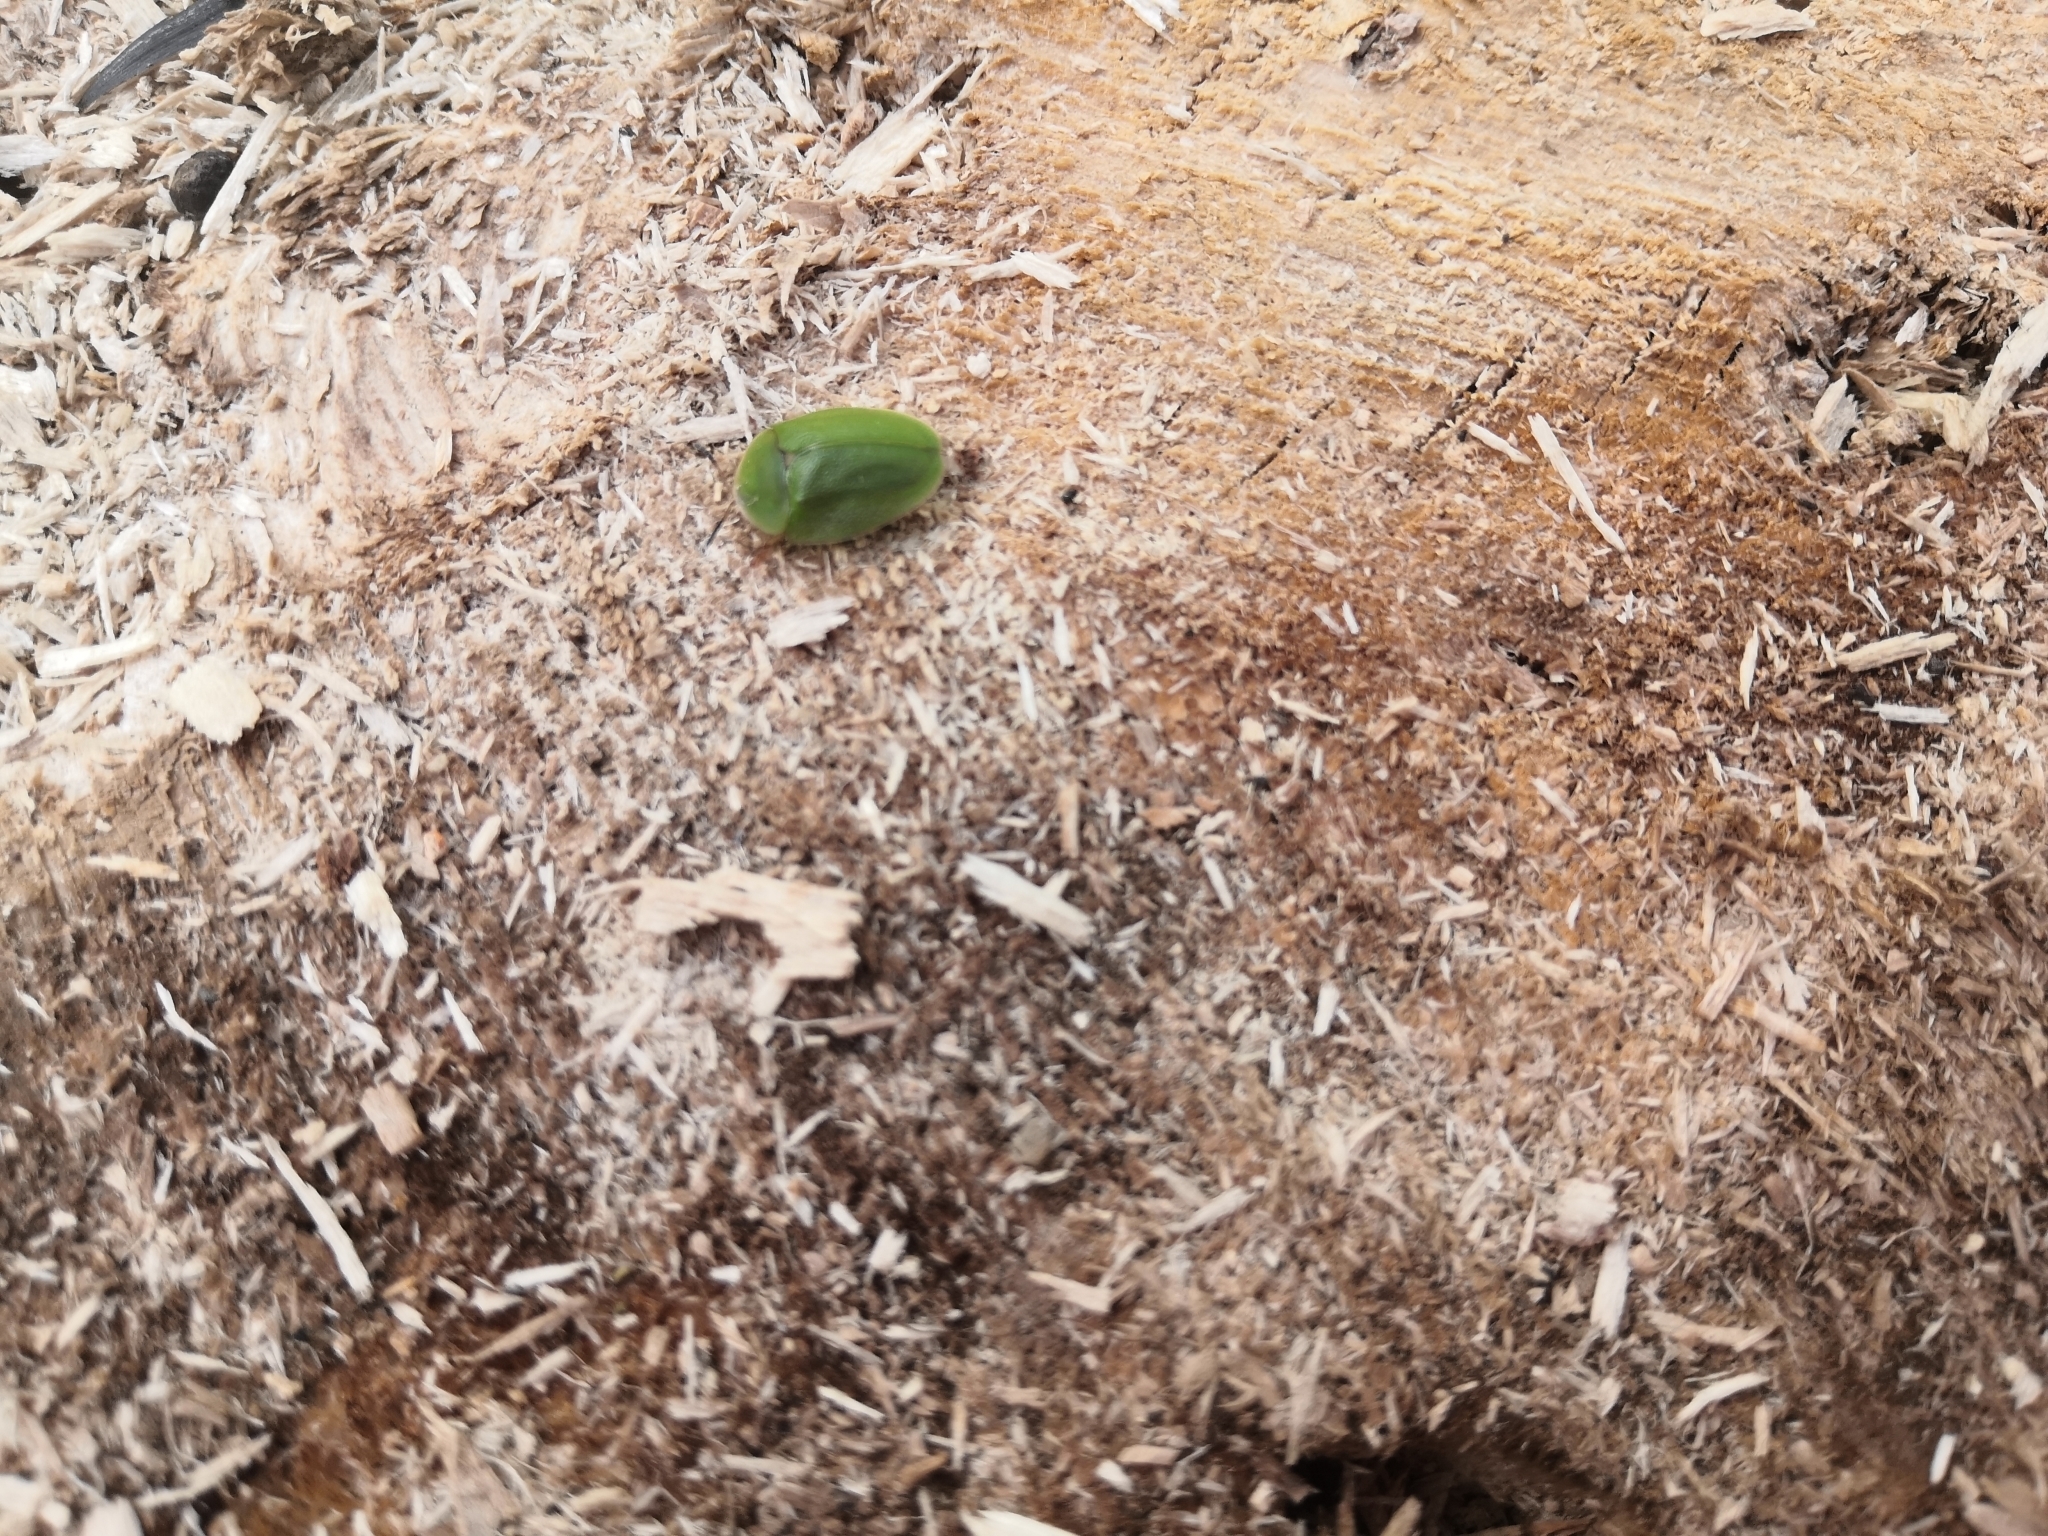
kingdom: Animalia
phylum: Arthropoda
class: Insecta
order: Coleoptera
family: Chrysomelidae
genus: Cassida
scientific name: Cassida viridis
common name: Green tortoise beetle
